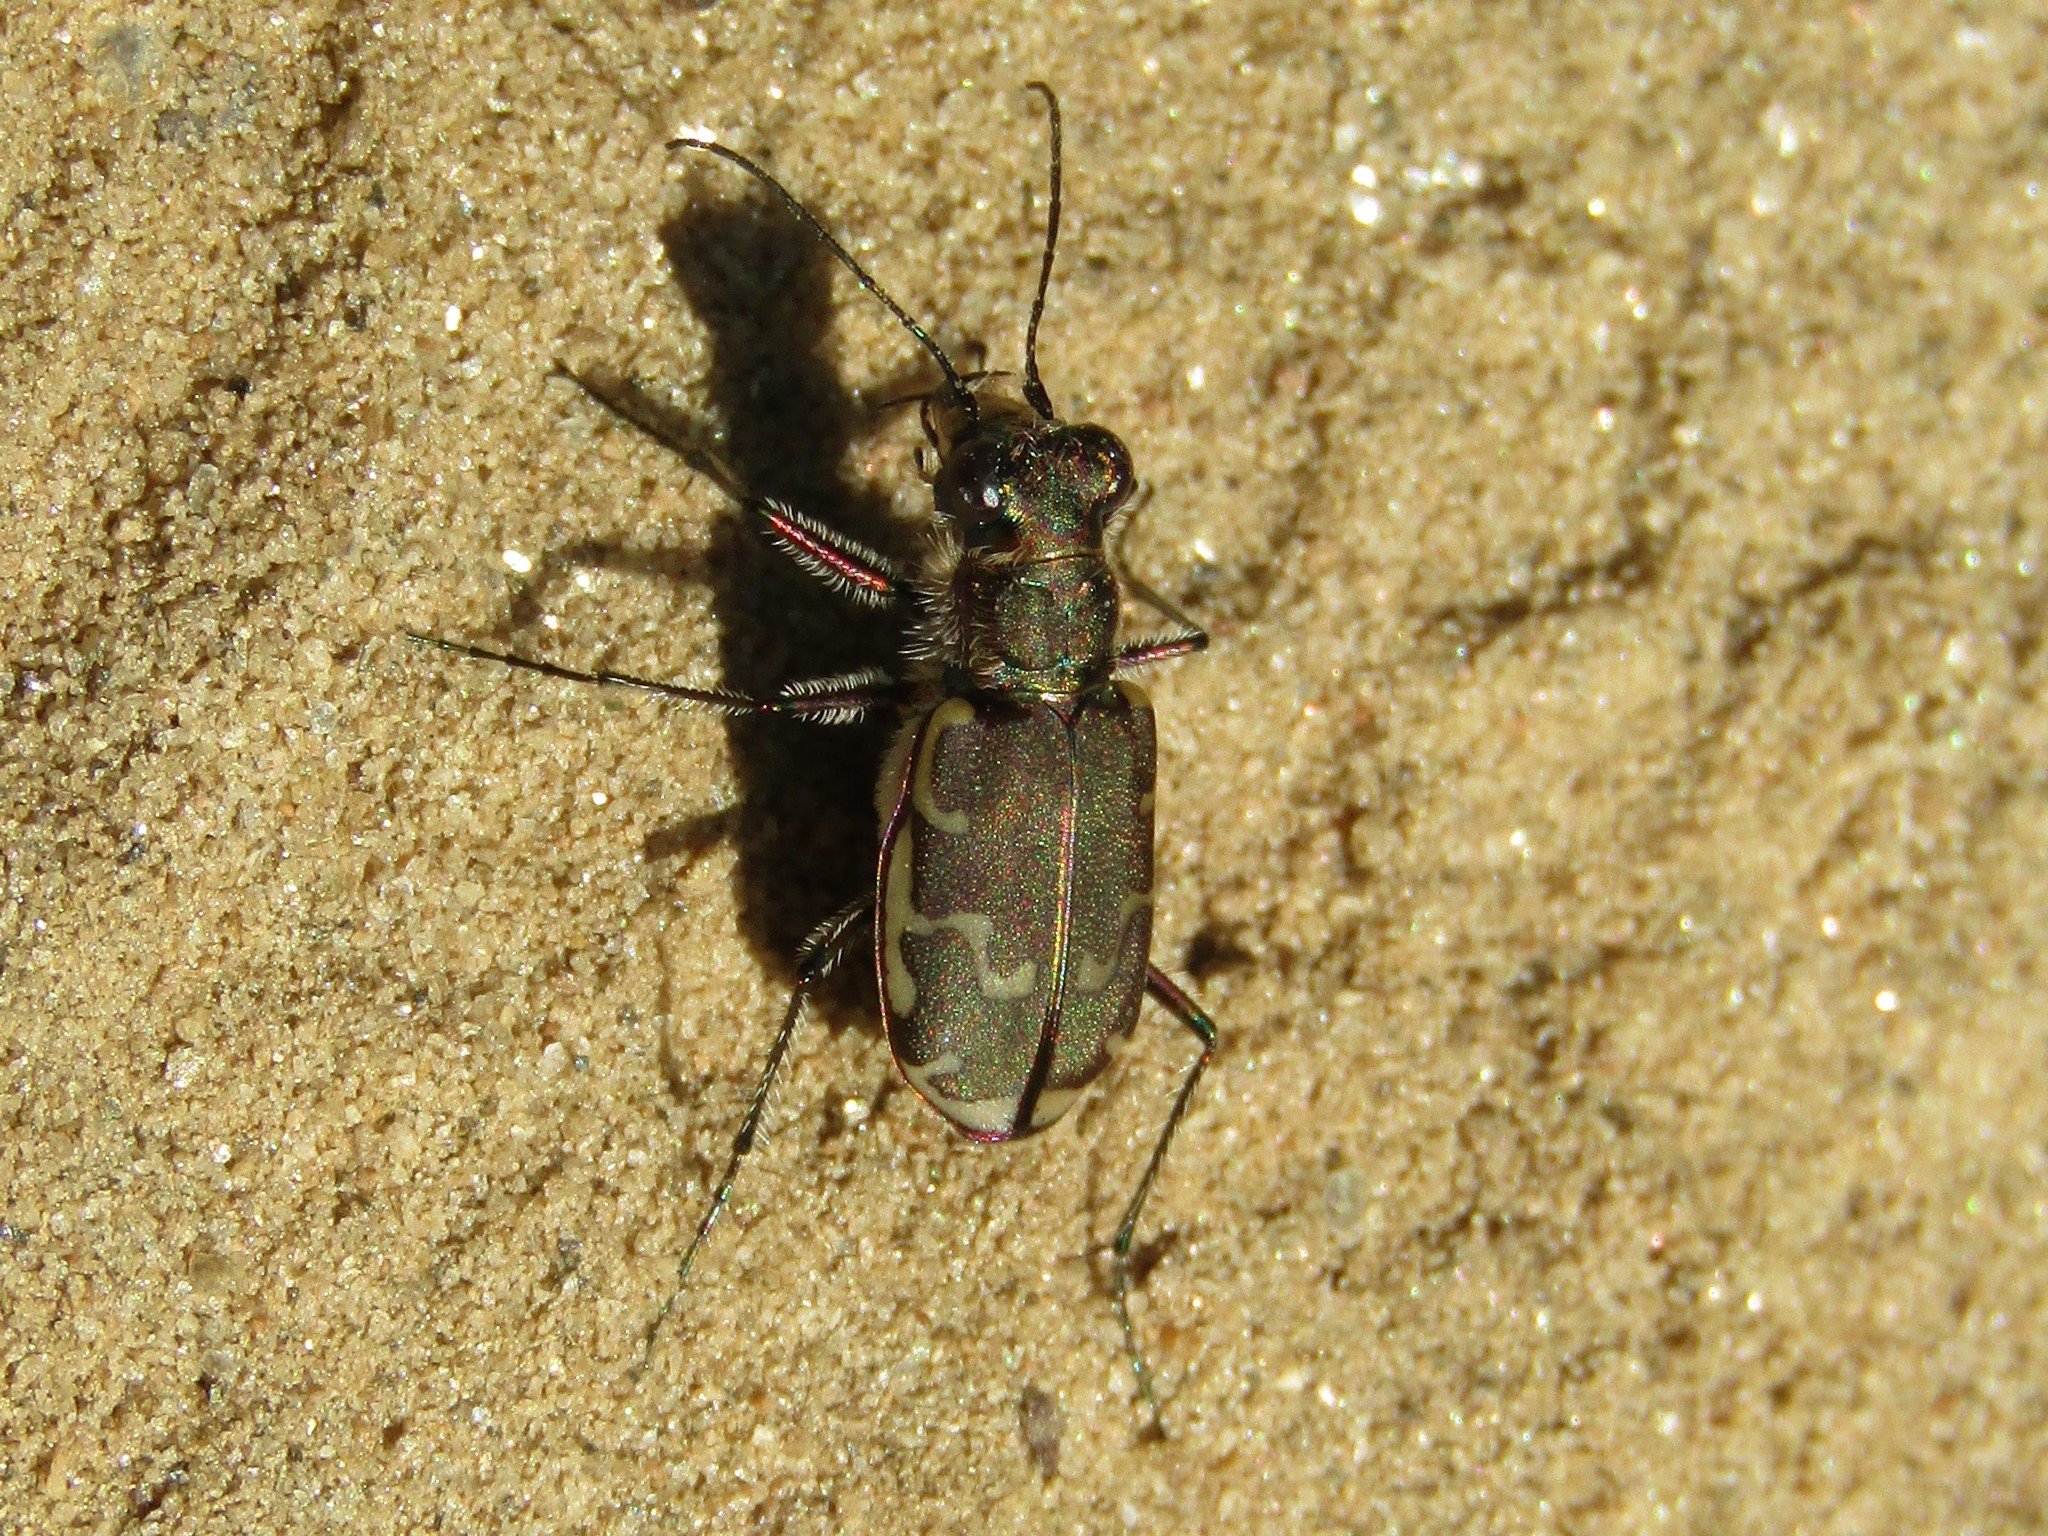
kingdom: Animalia
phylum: Arthropoda
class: Insecta
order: Coleoptera
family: Carabidae
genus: Cicindela
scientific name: Cicindela repanda
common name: Bronzed tiger beetle
